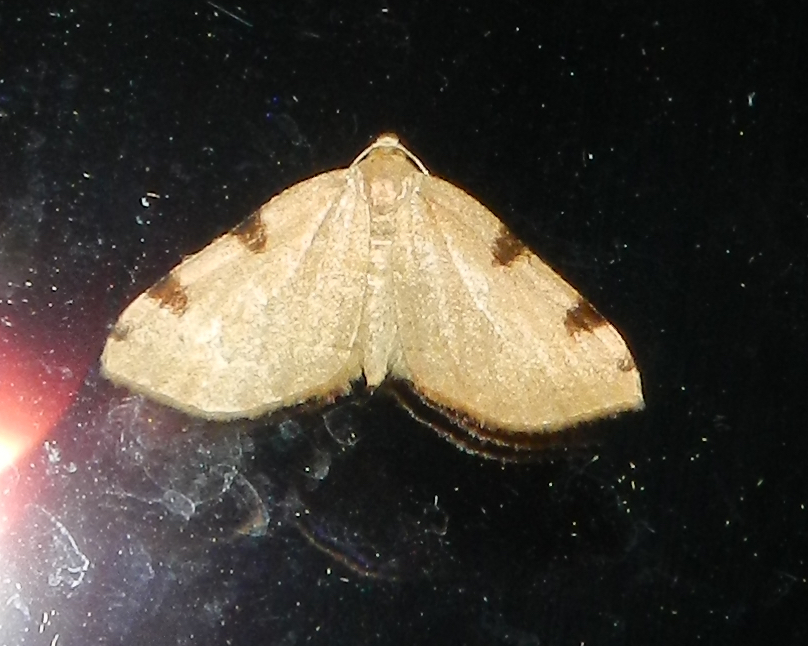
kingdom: Animalia
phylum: Arthropoda
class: Insecta
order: Lepidoptera
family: Geometridae
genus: Heterophleps
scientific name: Heterophleps triguttaria
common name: Three-spotted fillip
